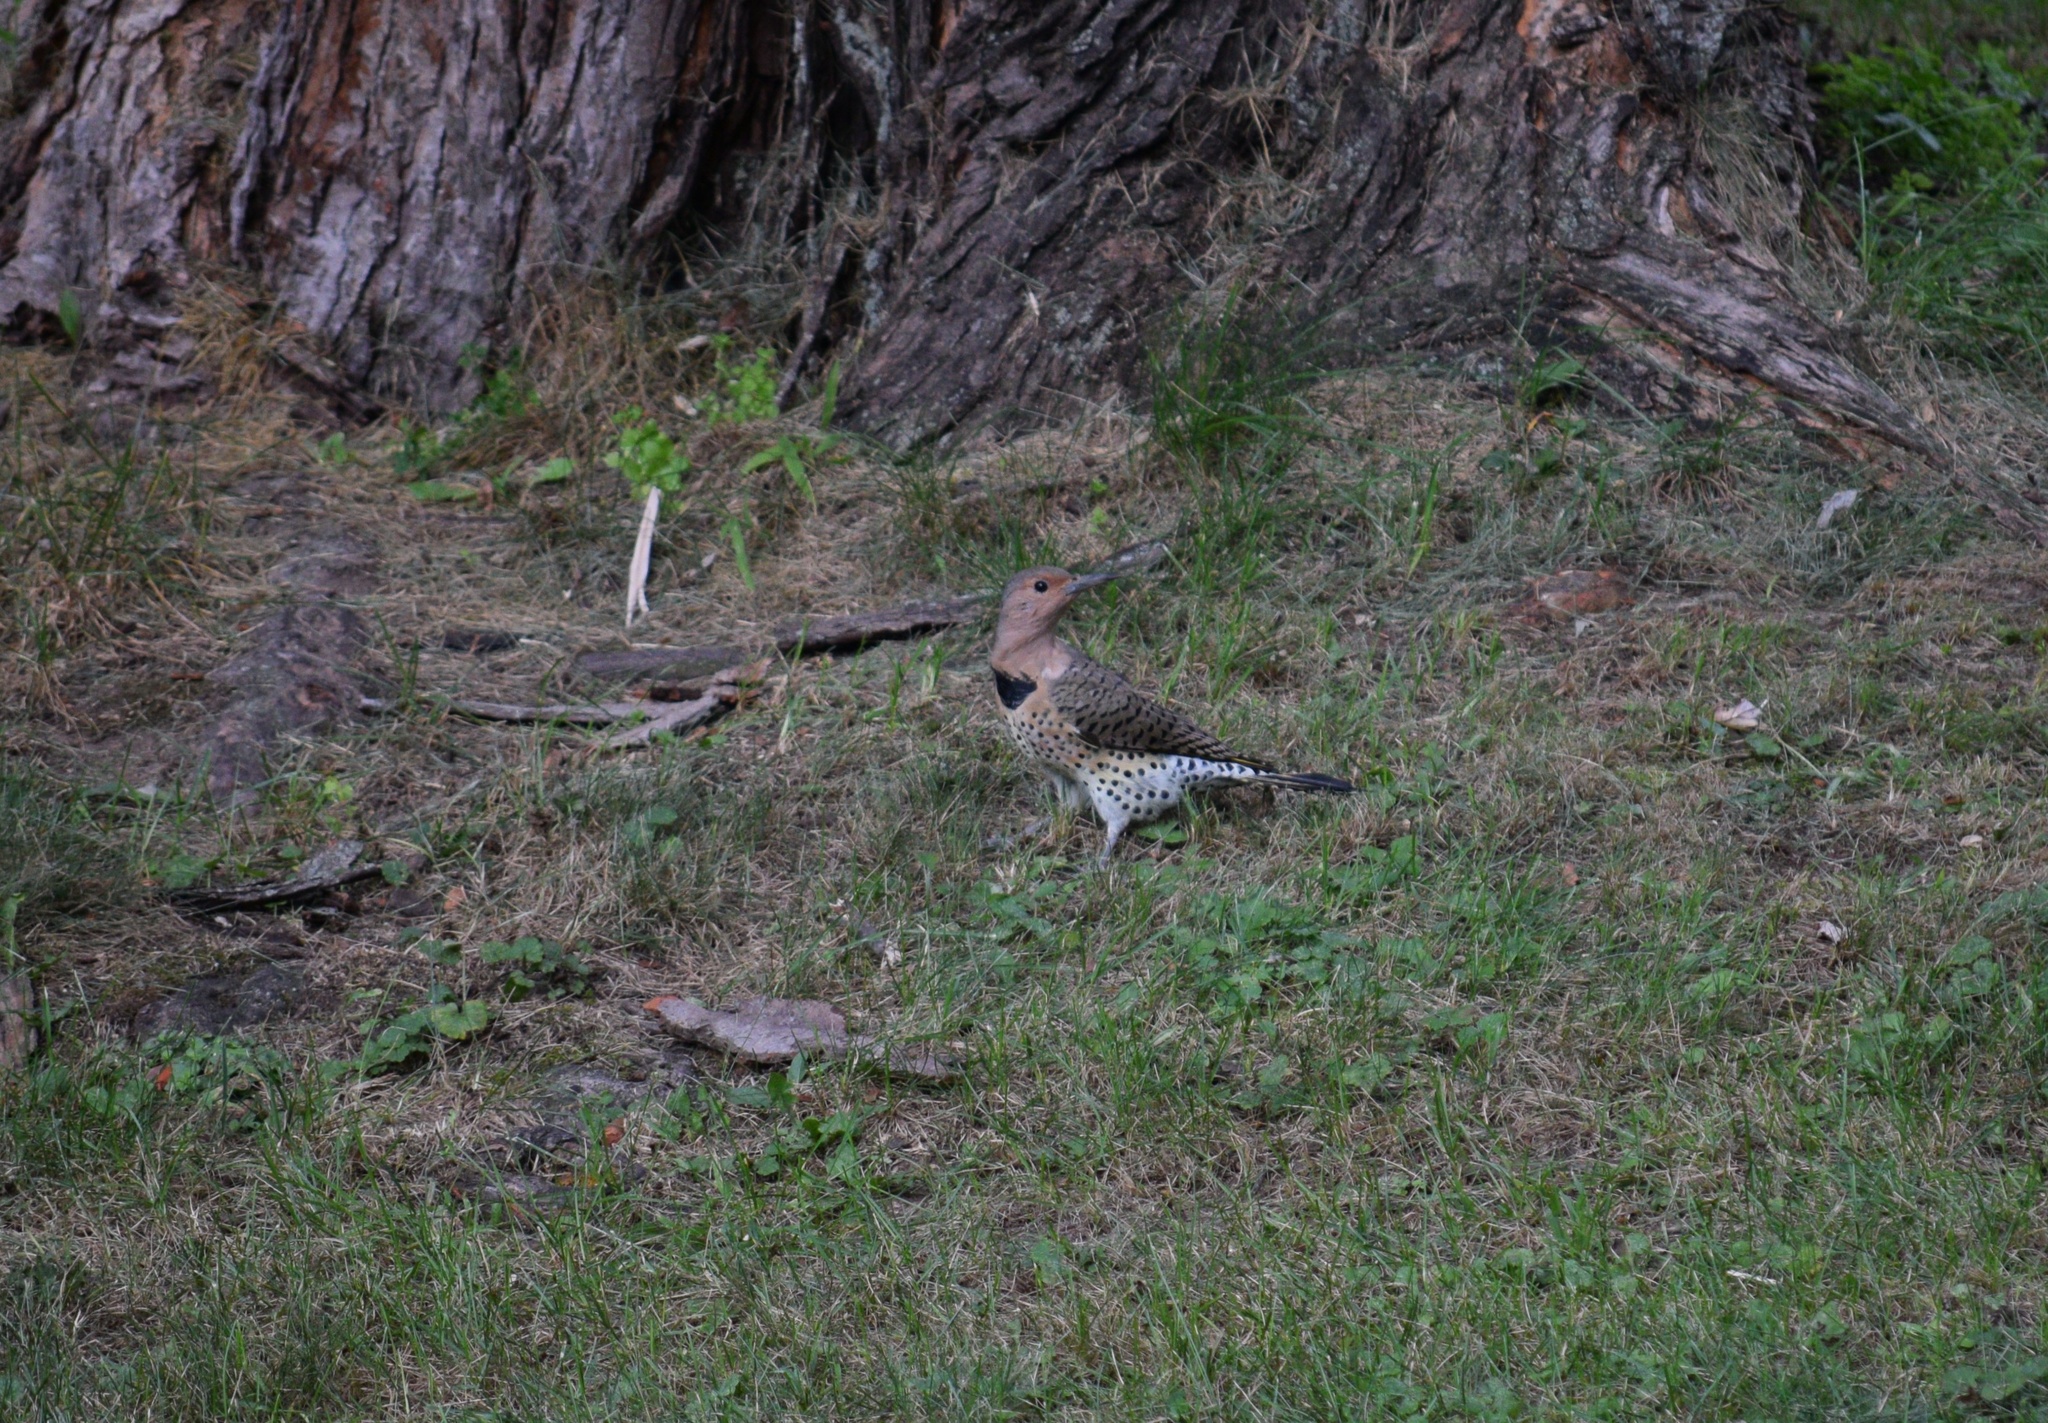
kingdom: Animalia
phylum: Chordata
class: Aves
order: Piciformes
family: Picidae
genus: Colaptes
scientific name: Colaptes auratus
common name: Northern flicker
